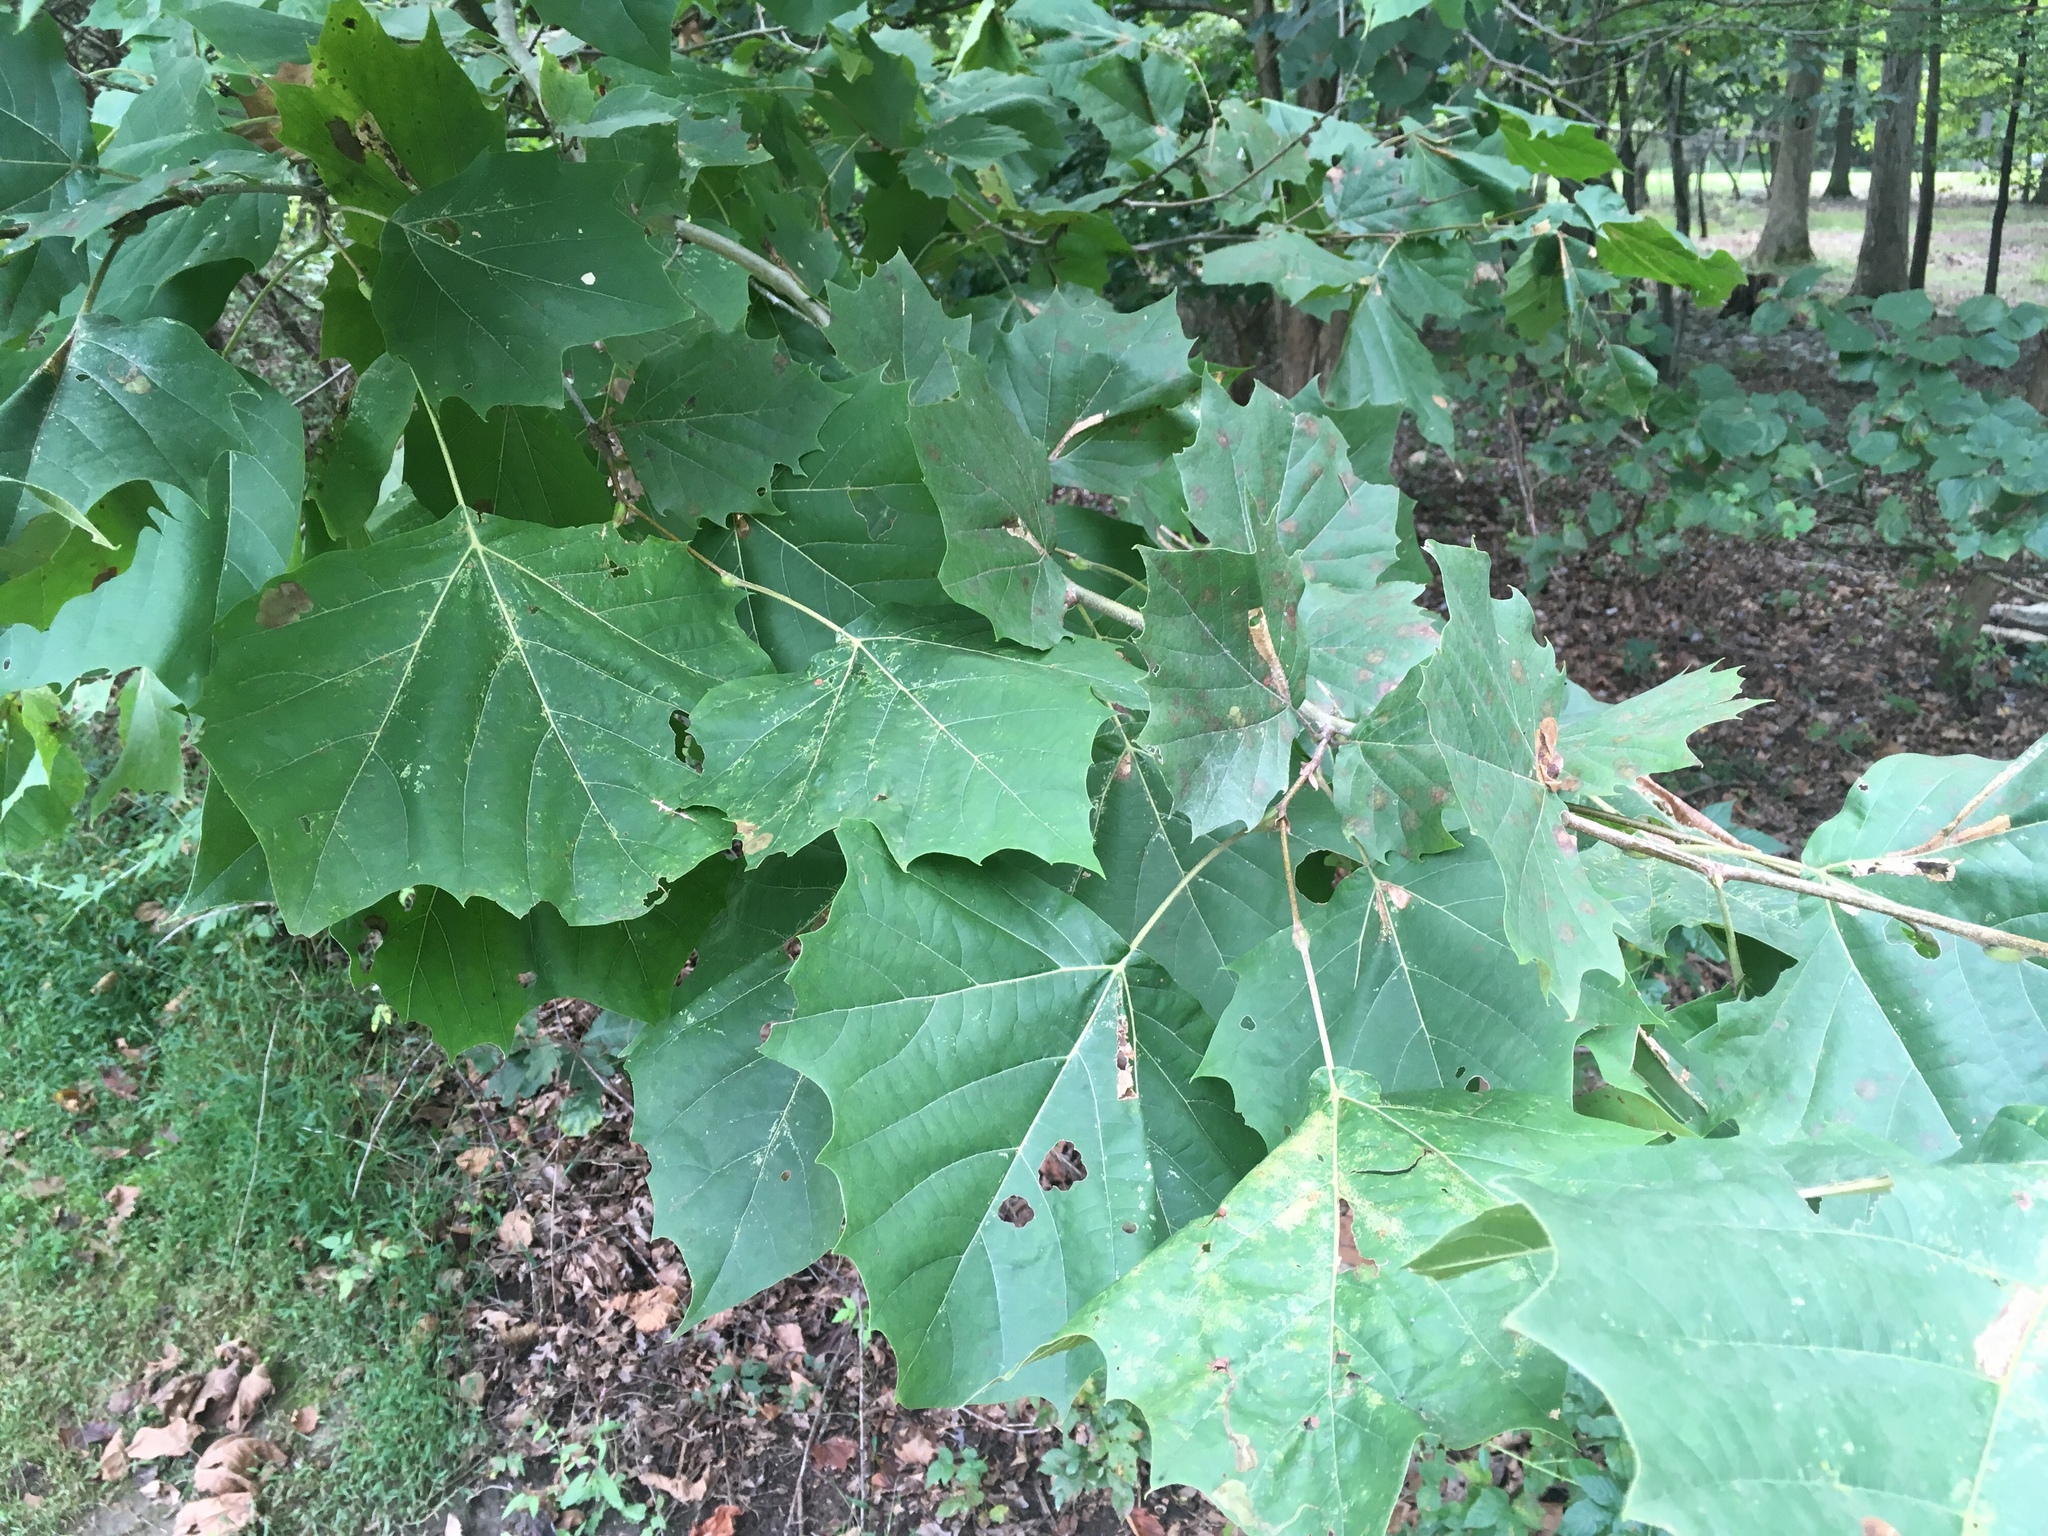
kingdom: Plantae
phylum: Tracheophyta
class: Magnoliopsida
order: Proteales
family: Platanaceae
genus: Platanus
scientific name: Platanus occidentalis
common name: American sycamore
